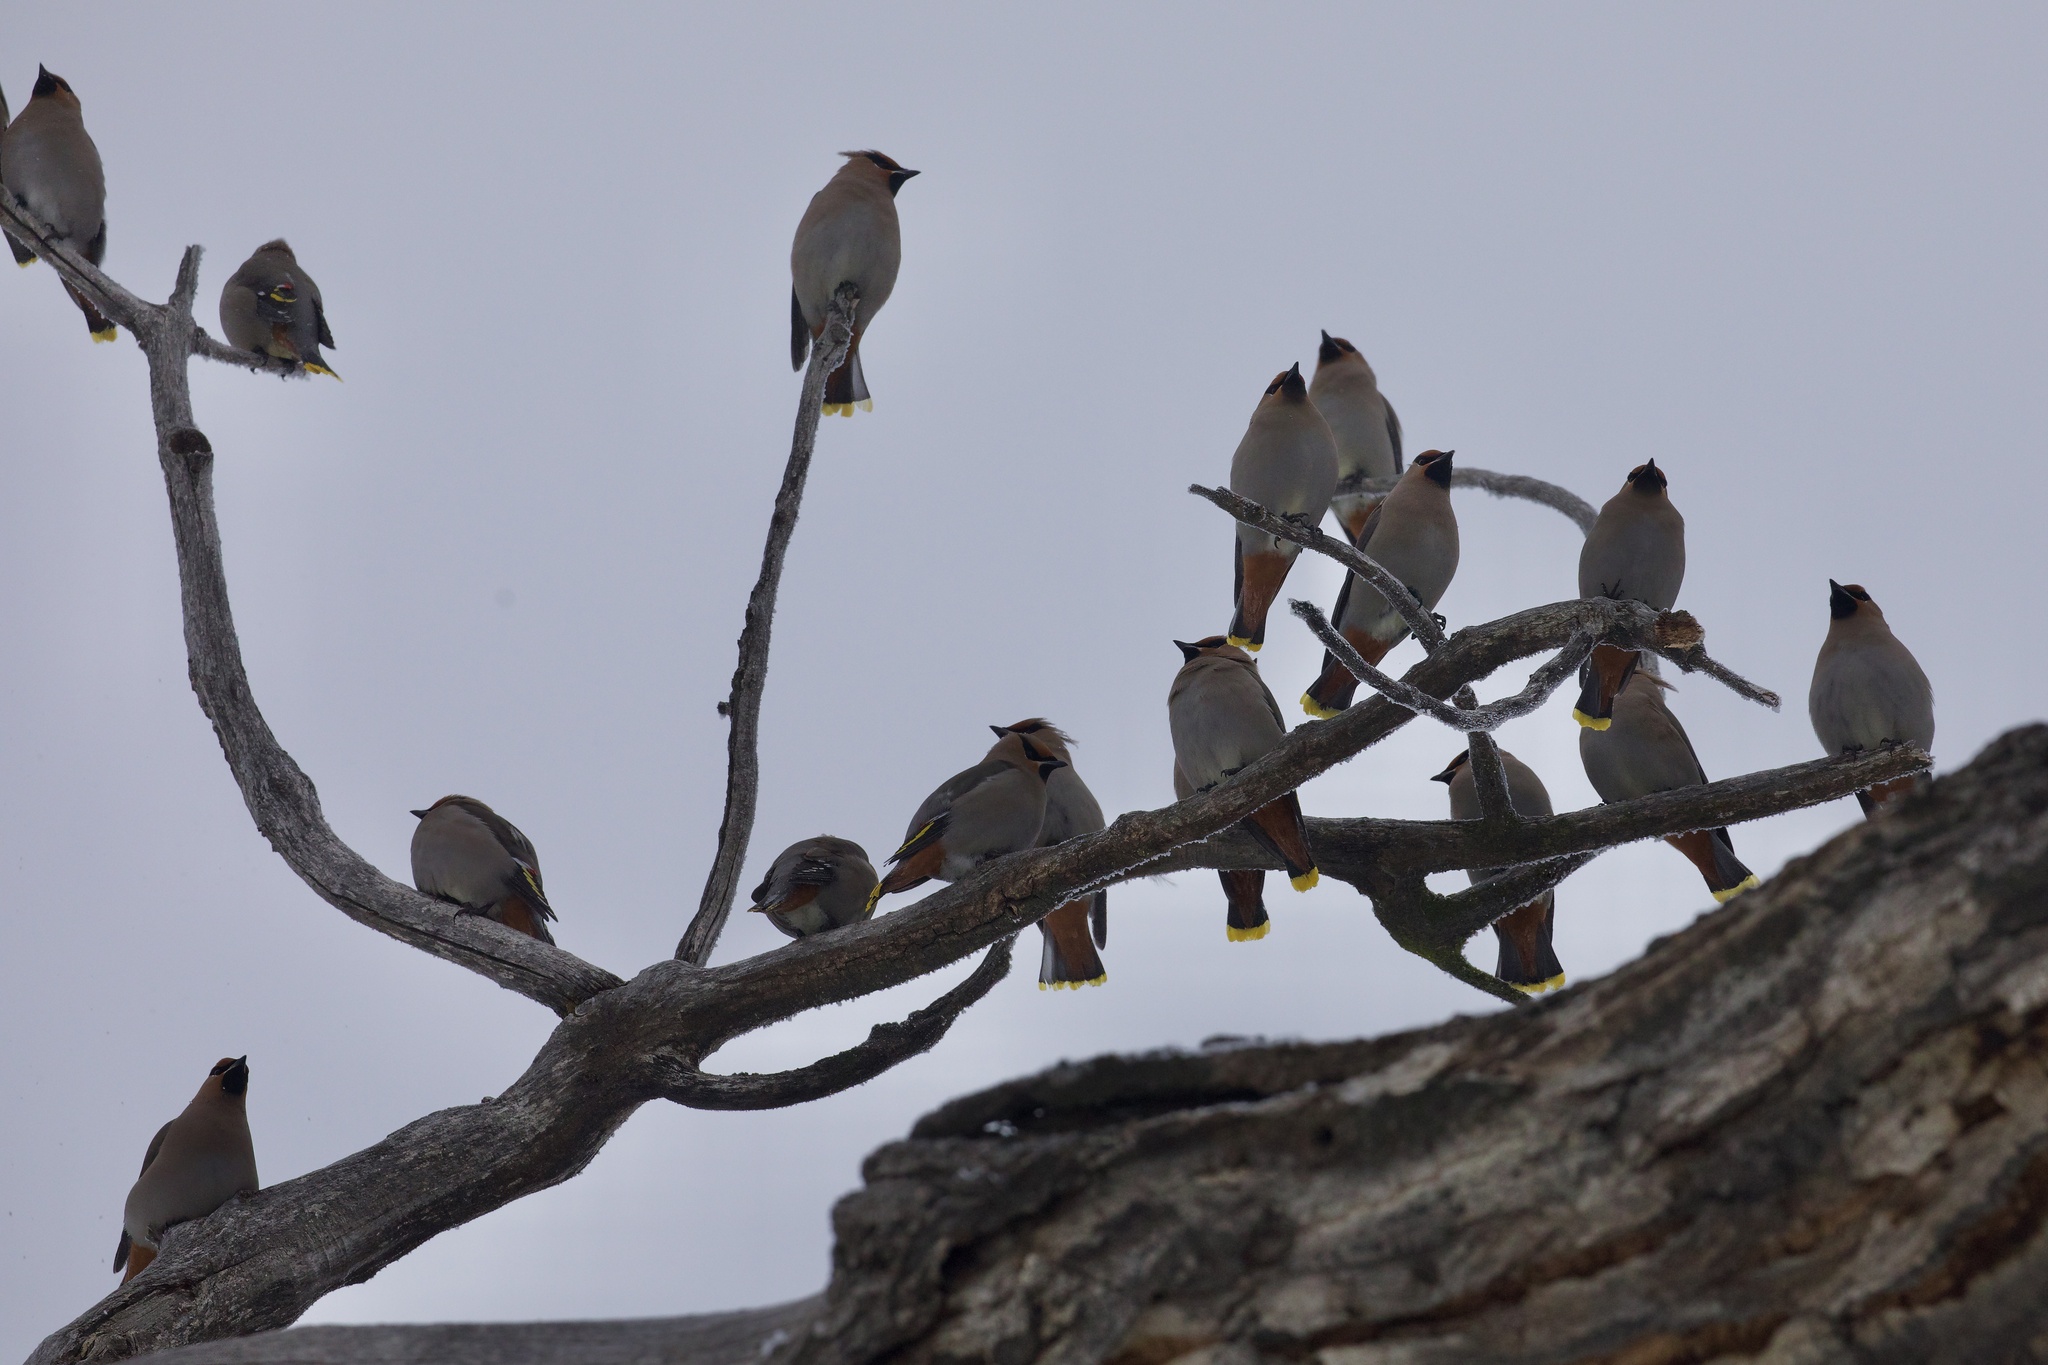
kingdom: Animalia
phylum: Chordata
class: Aves
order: Passeriformes
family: Bombycillidae
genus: Bombycilla
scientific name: Bombycilla garrulus
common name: Bohemian waxwing
